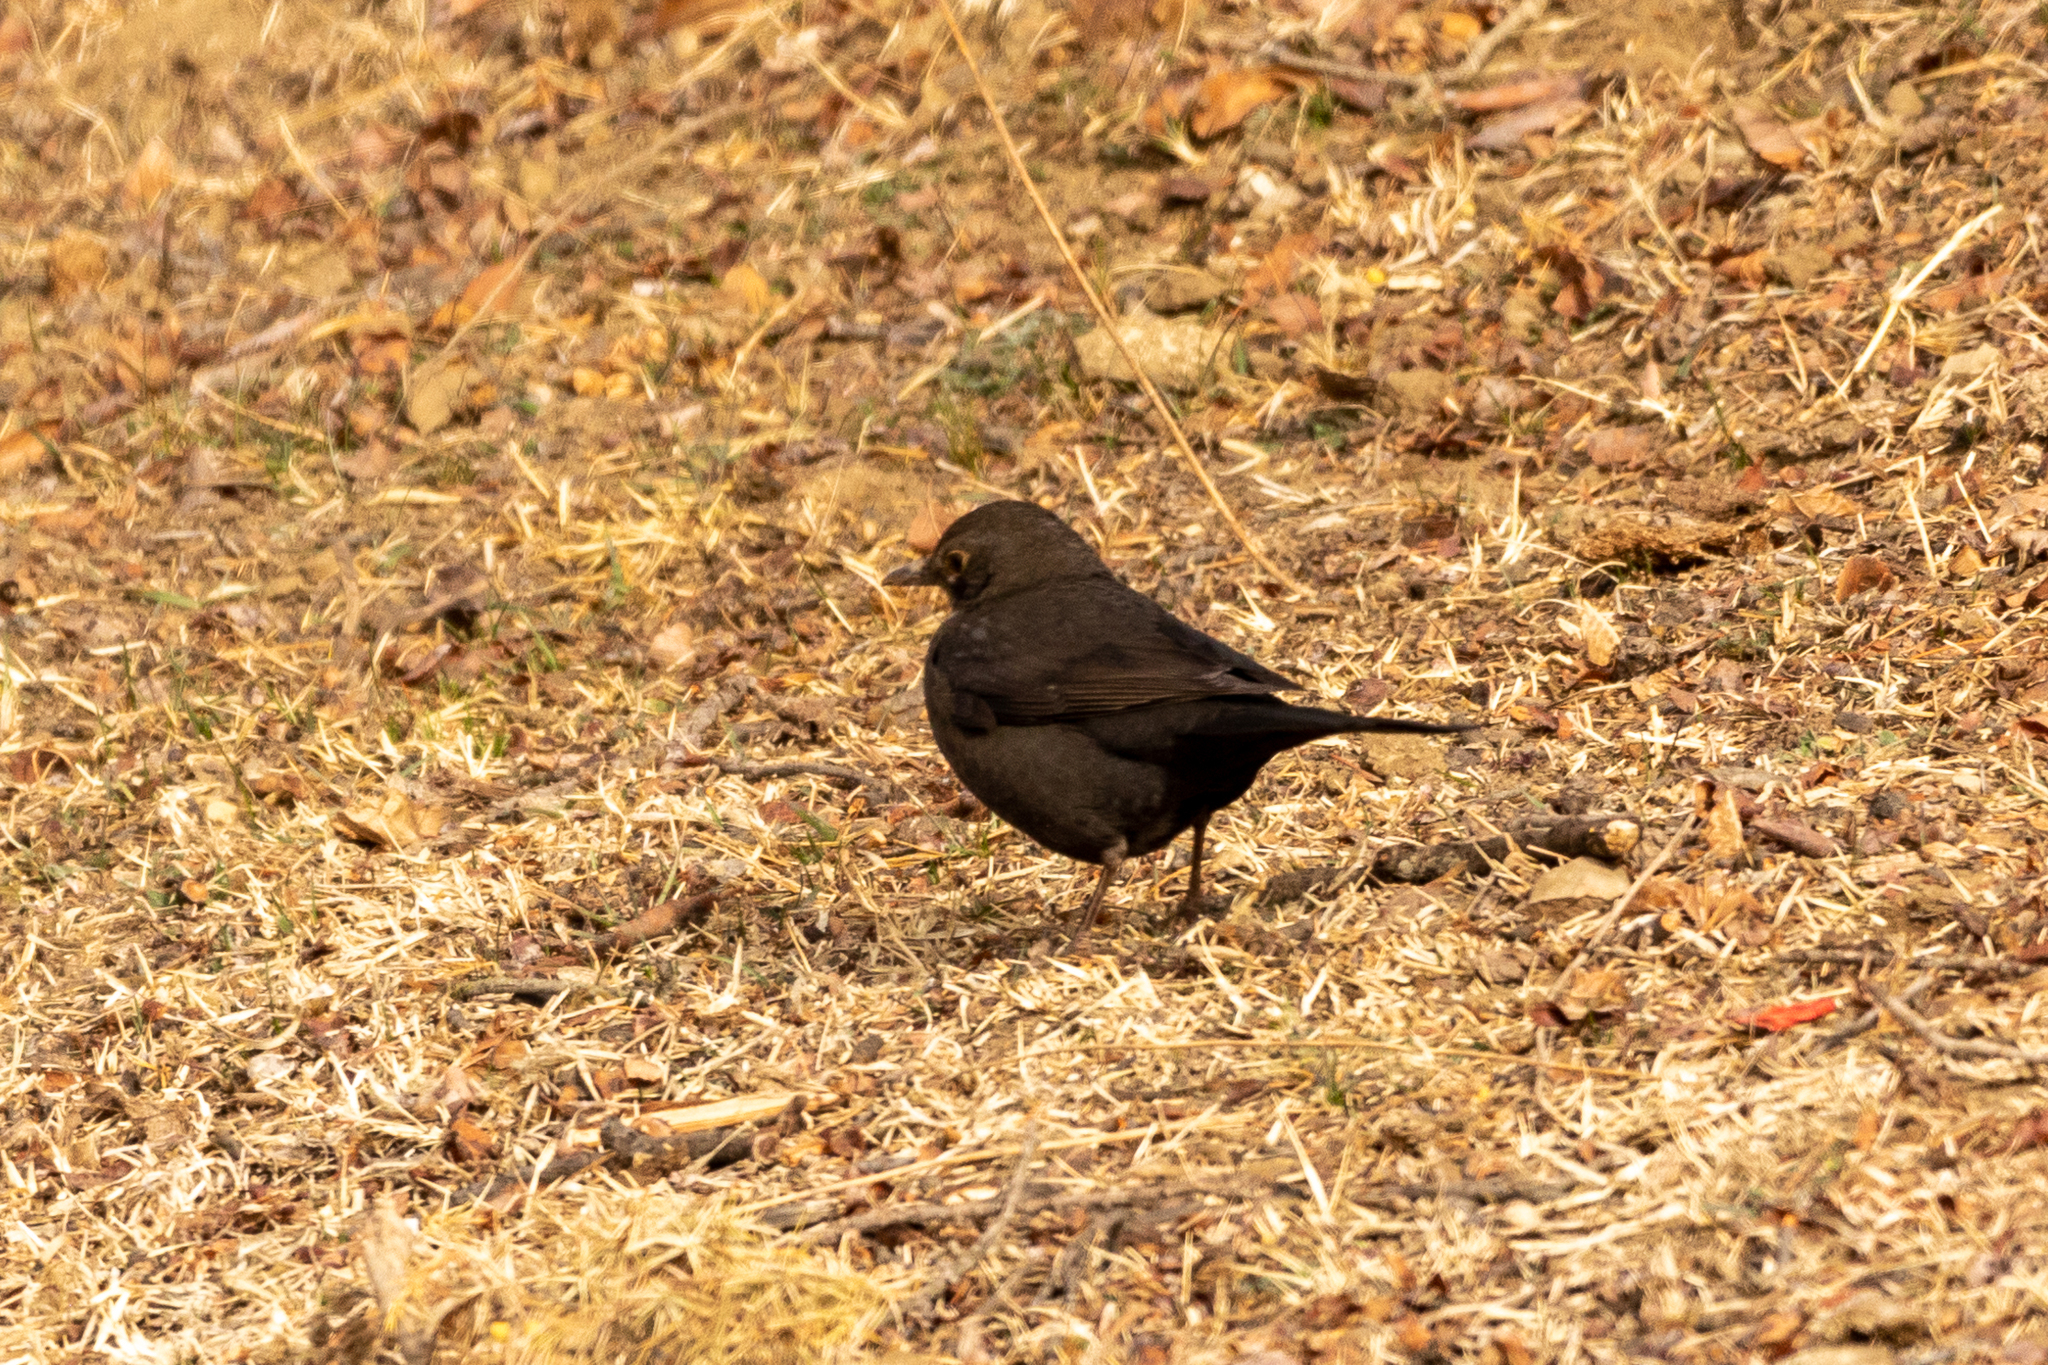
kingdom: Animalia
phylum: Chordata
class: Aves
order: Passeriformes
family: Turdidae
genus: Turdus
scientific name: Turdus merula
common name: Common blackbird
